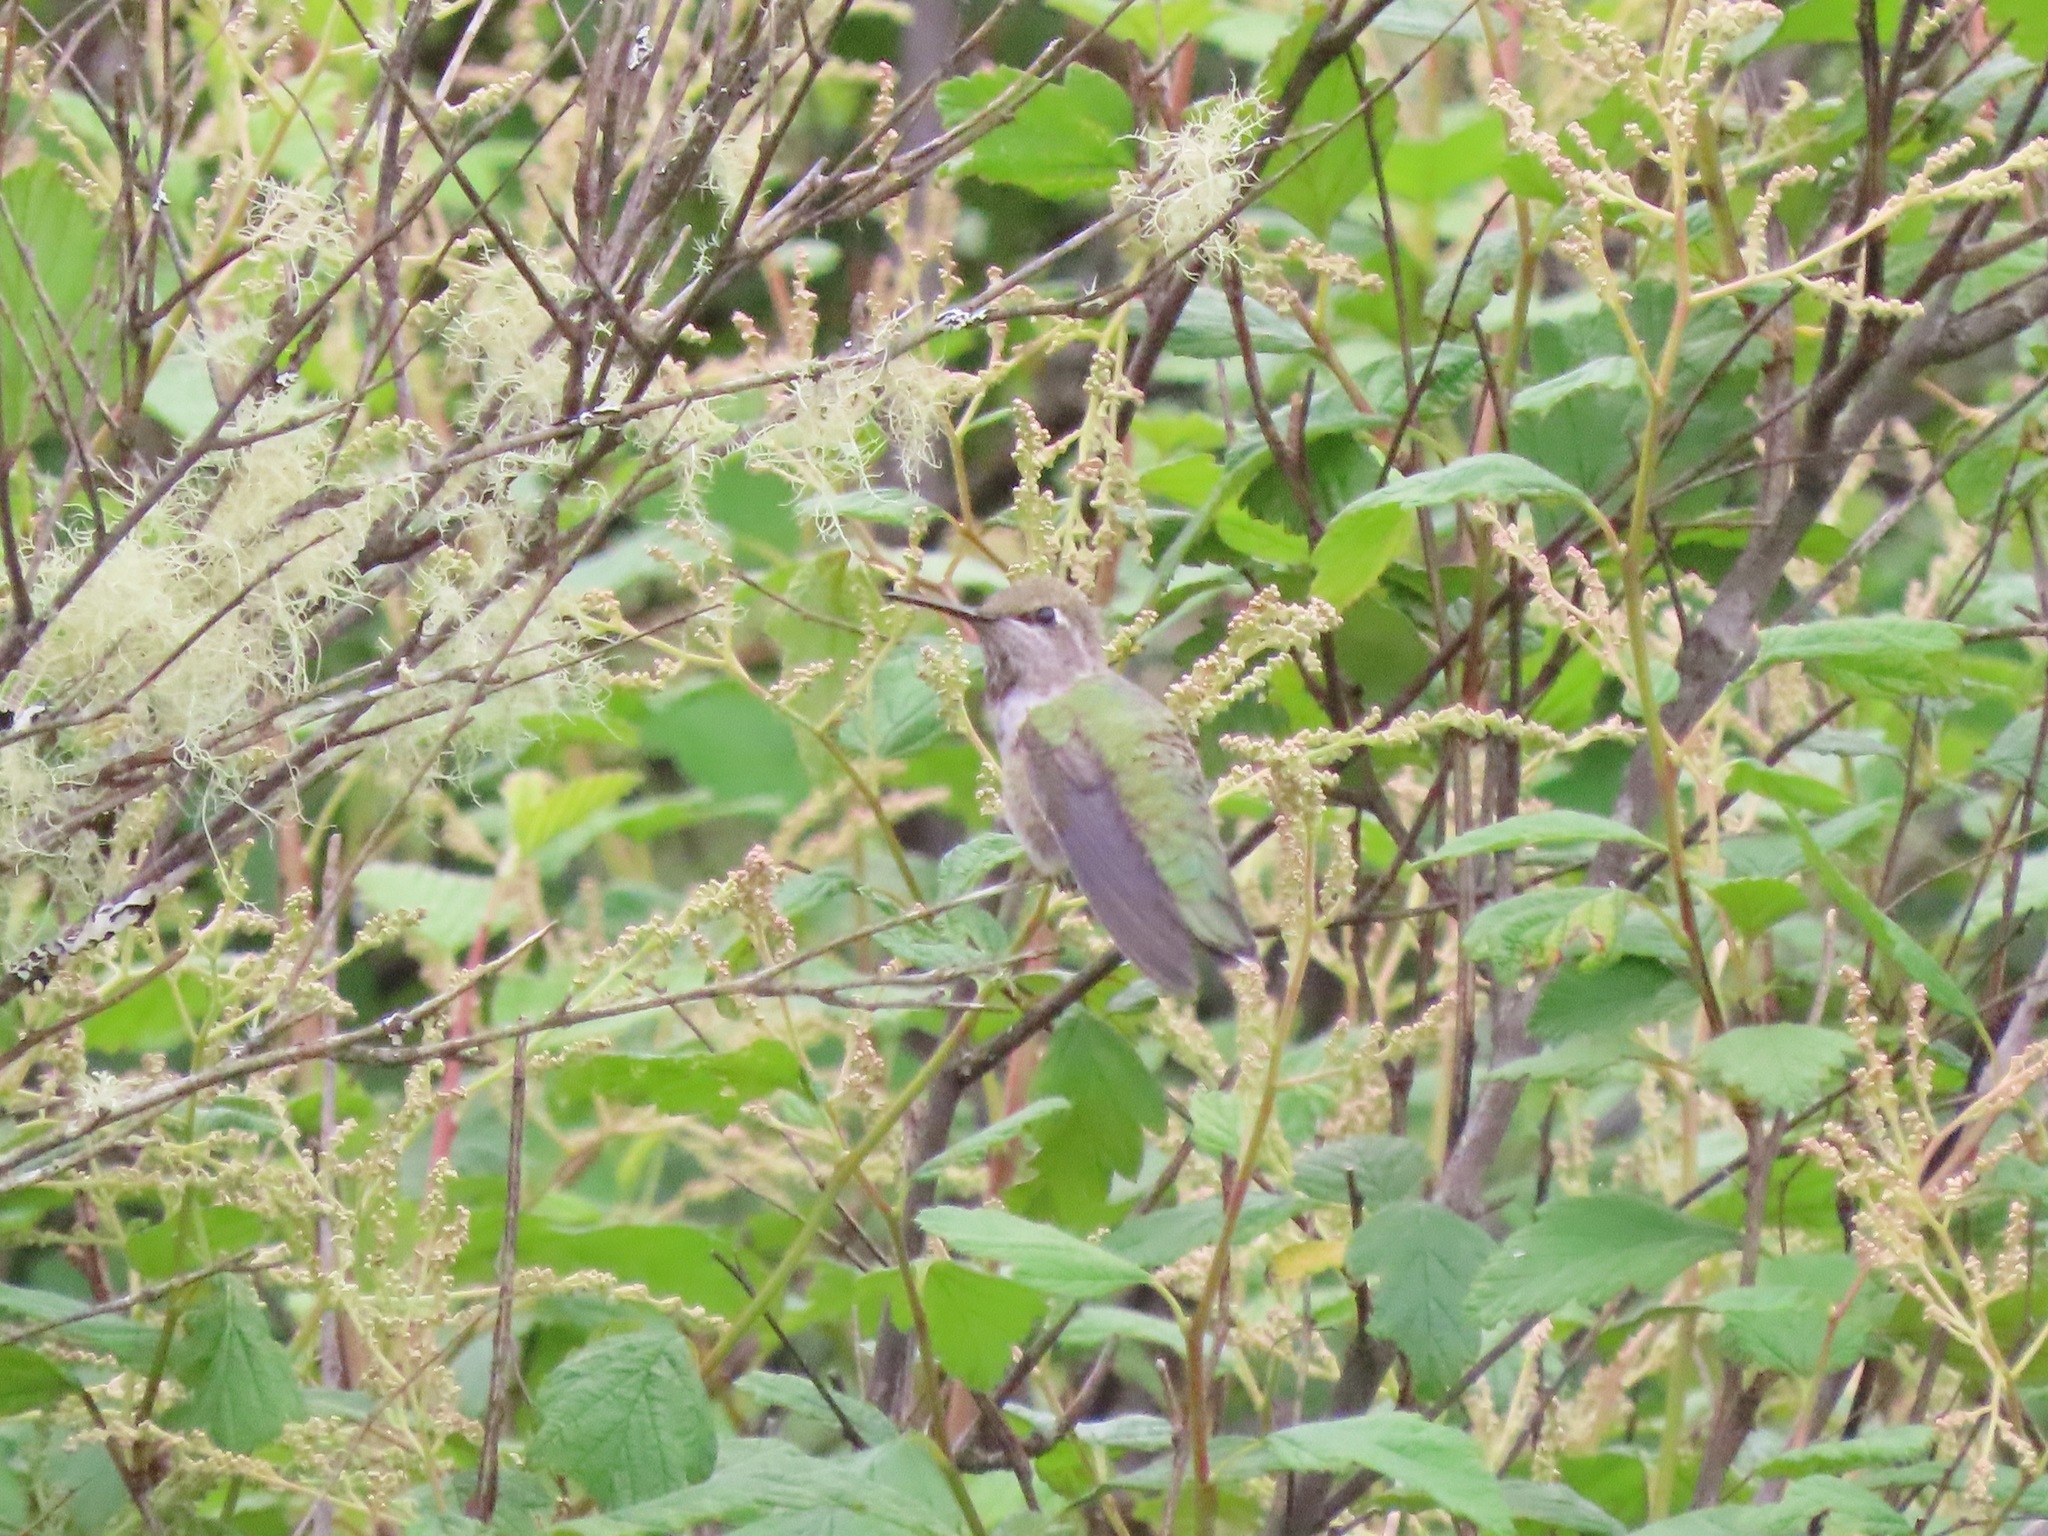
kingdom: Animalia
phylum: Chordata
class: Aves
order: Apodiformes
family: Trochilidae
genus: Calypte
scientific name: Calypte anna
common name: Anna's hummingbird
